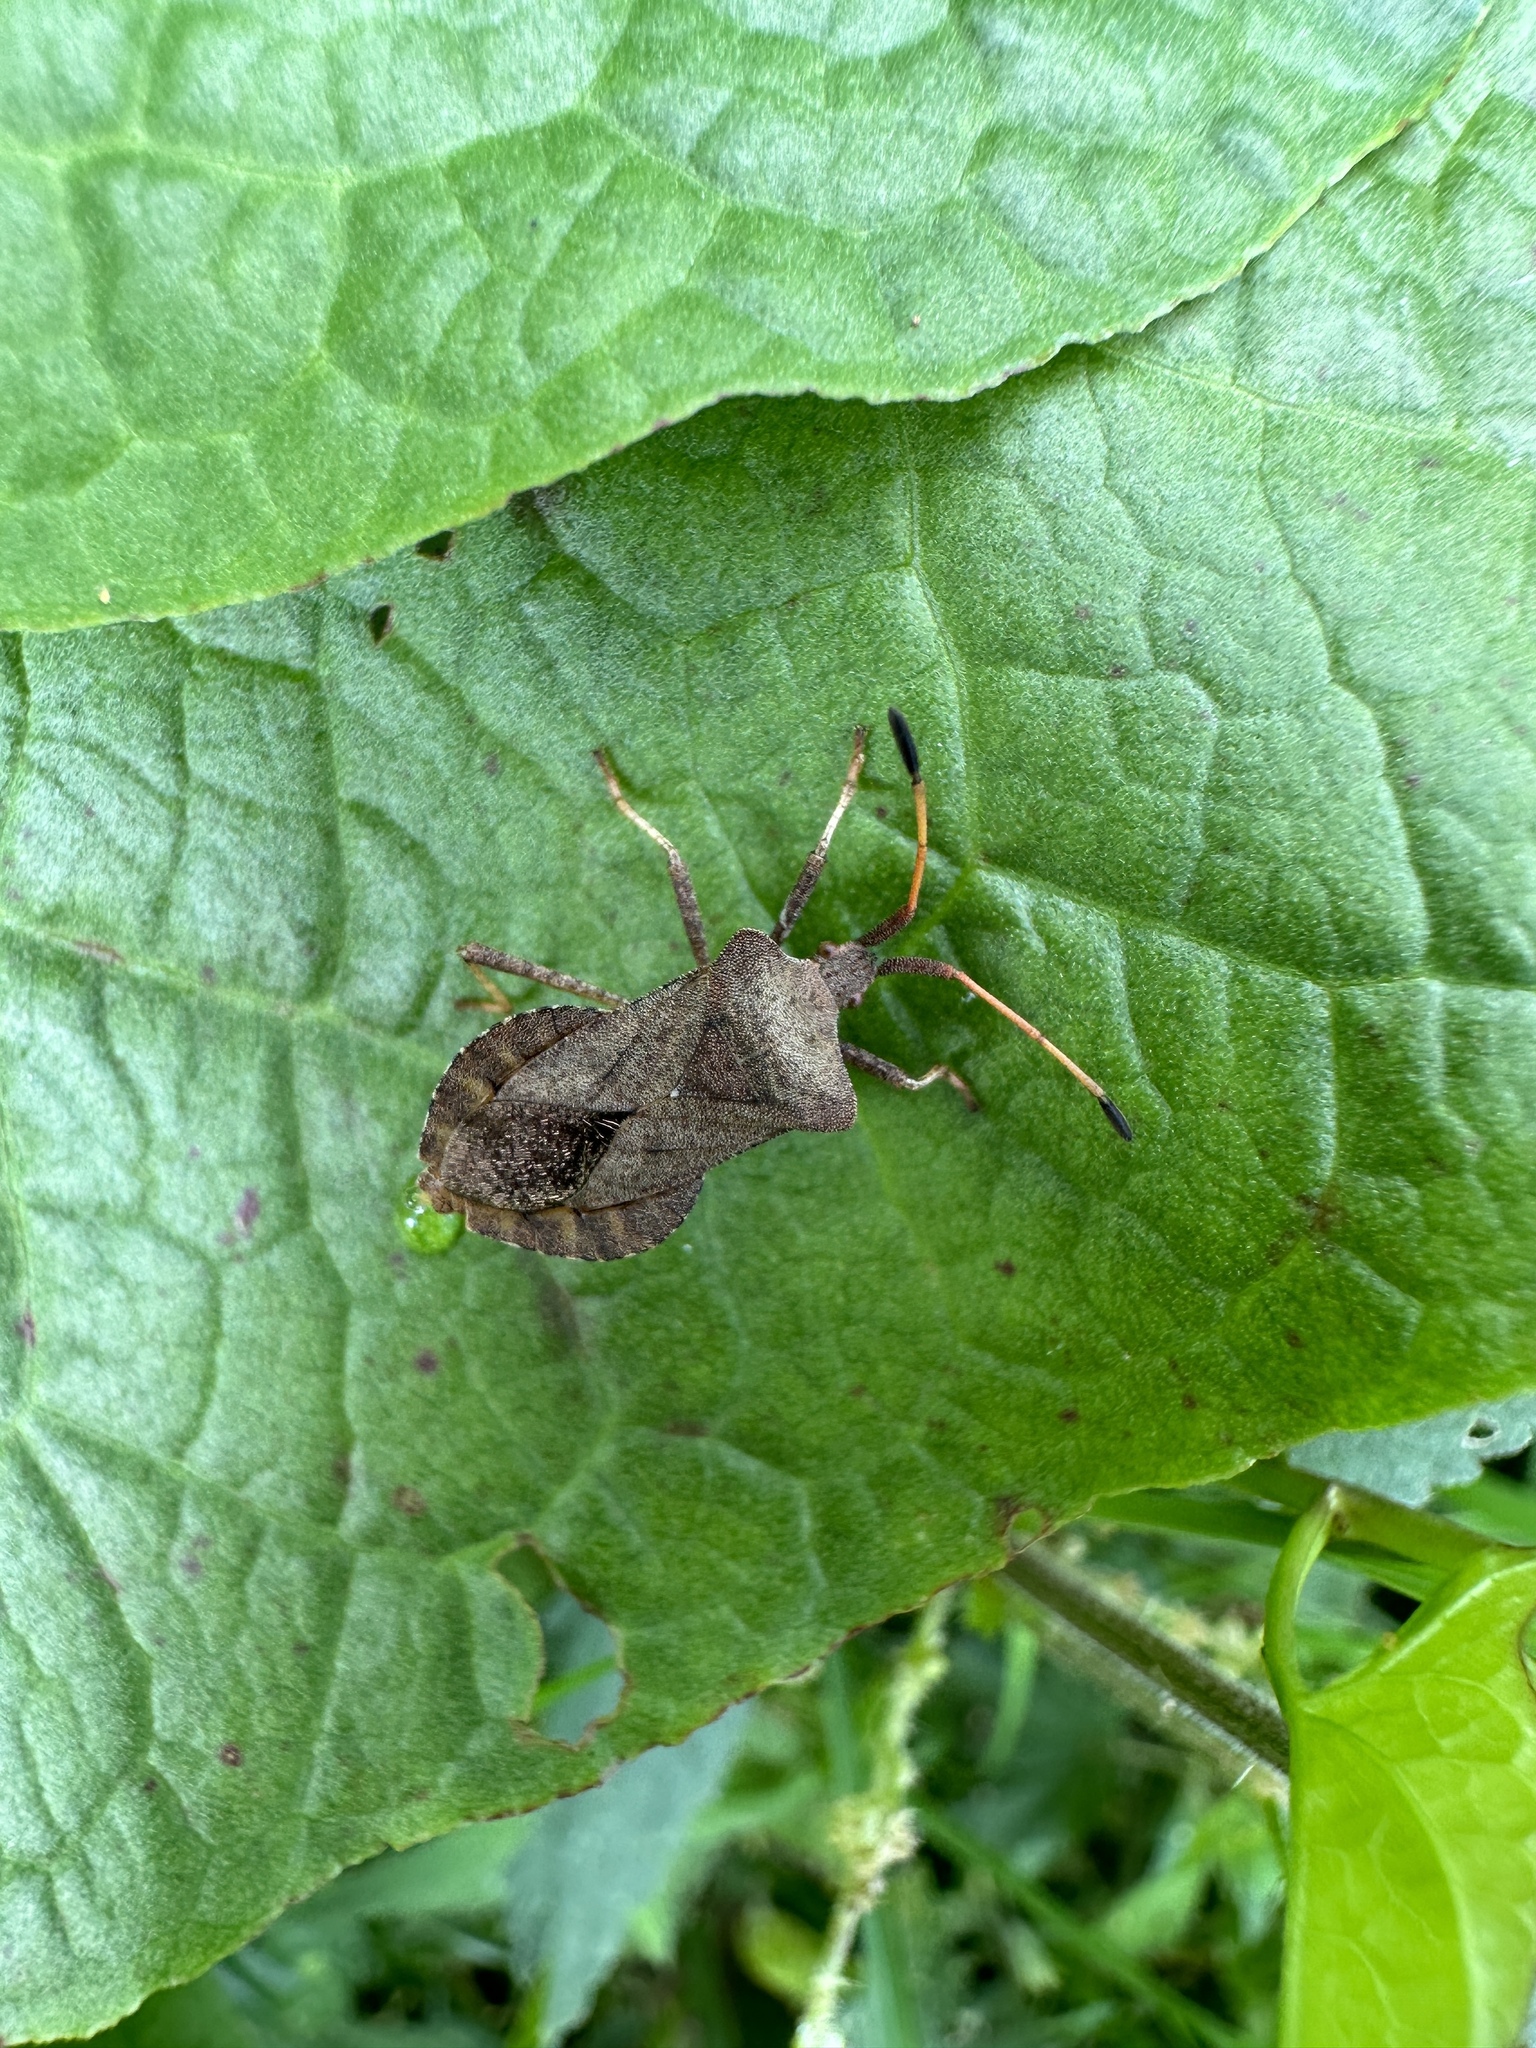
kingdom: Animalia
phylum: Arthropoda
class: Insecta
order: Hemiptera
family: Coreidae
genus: Coreus
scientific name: Coreus marginatus
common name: Dock bug
